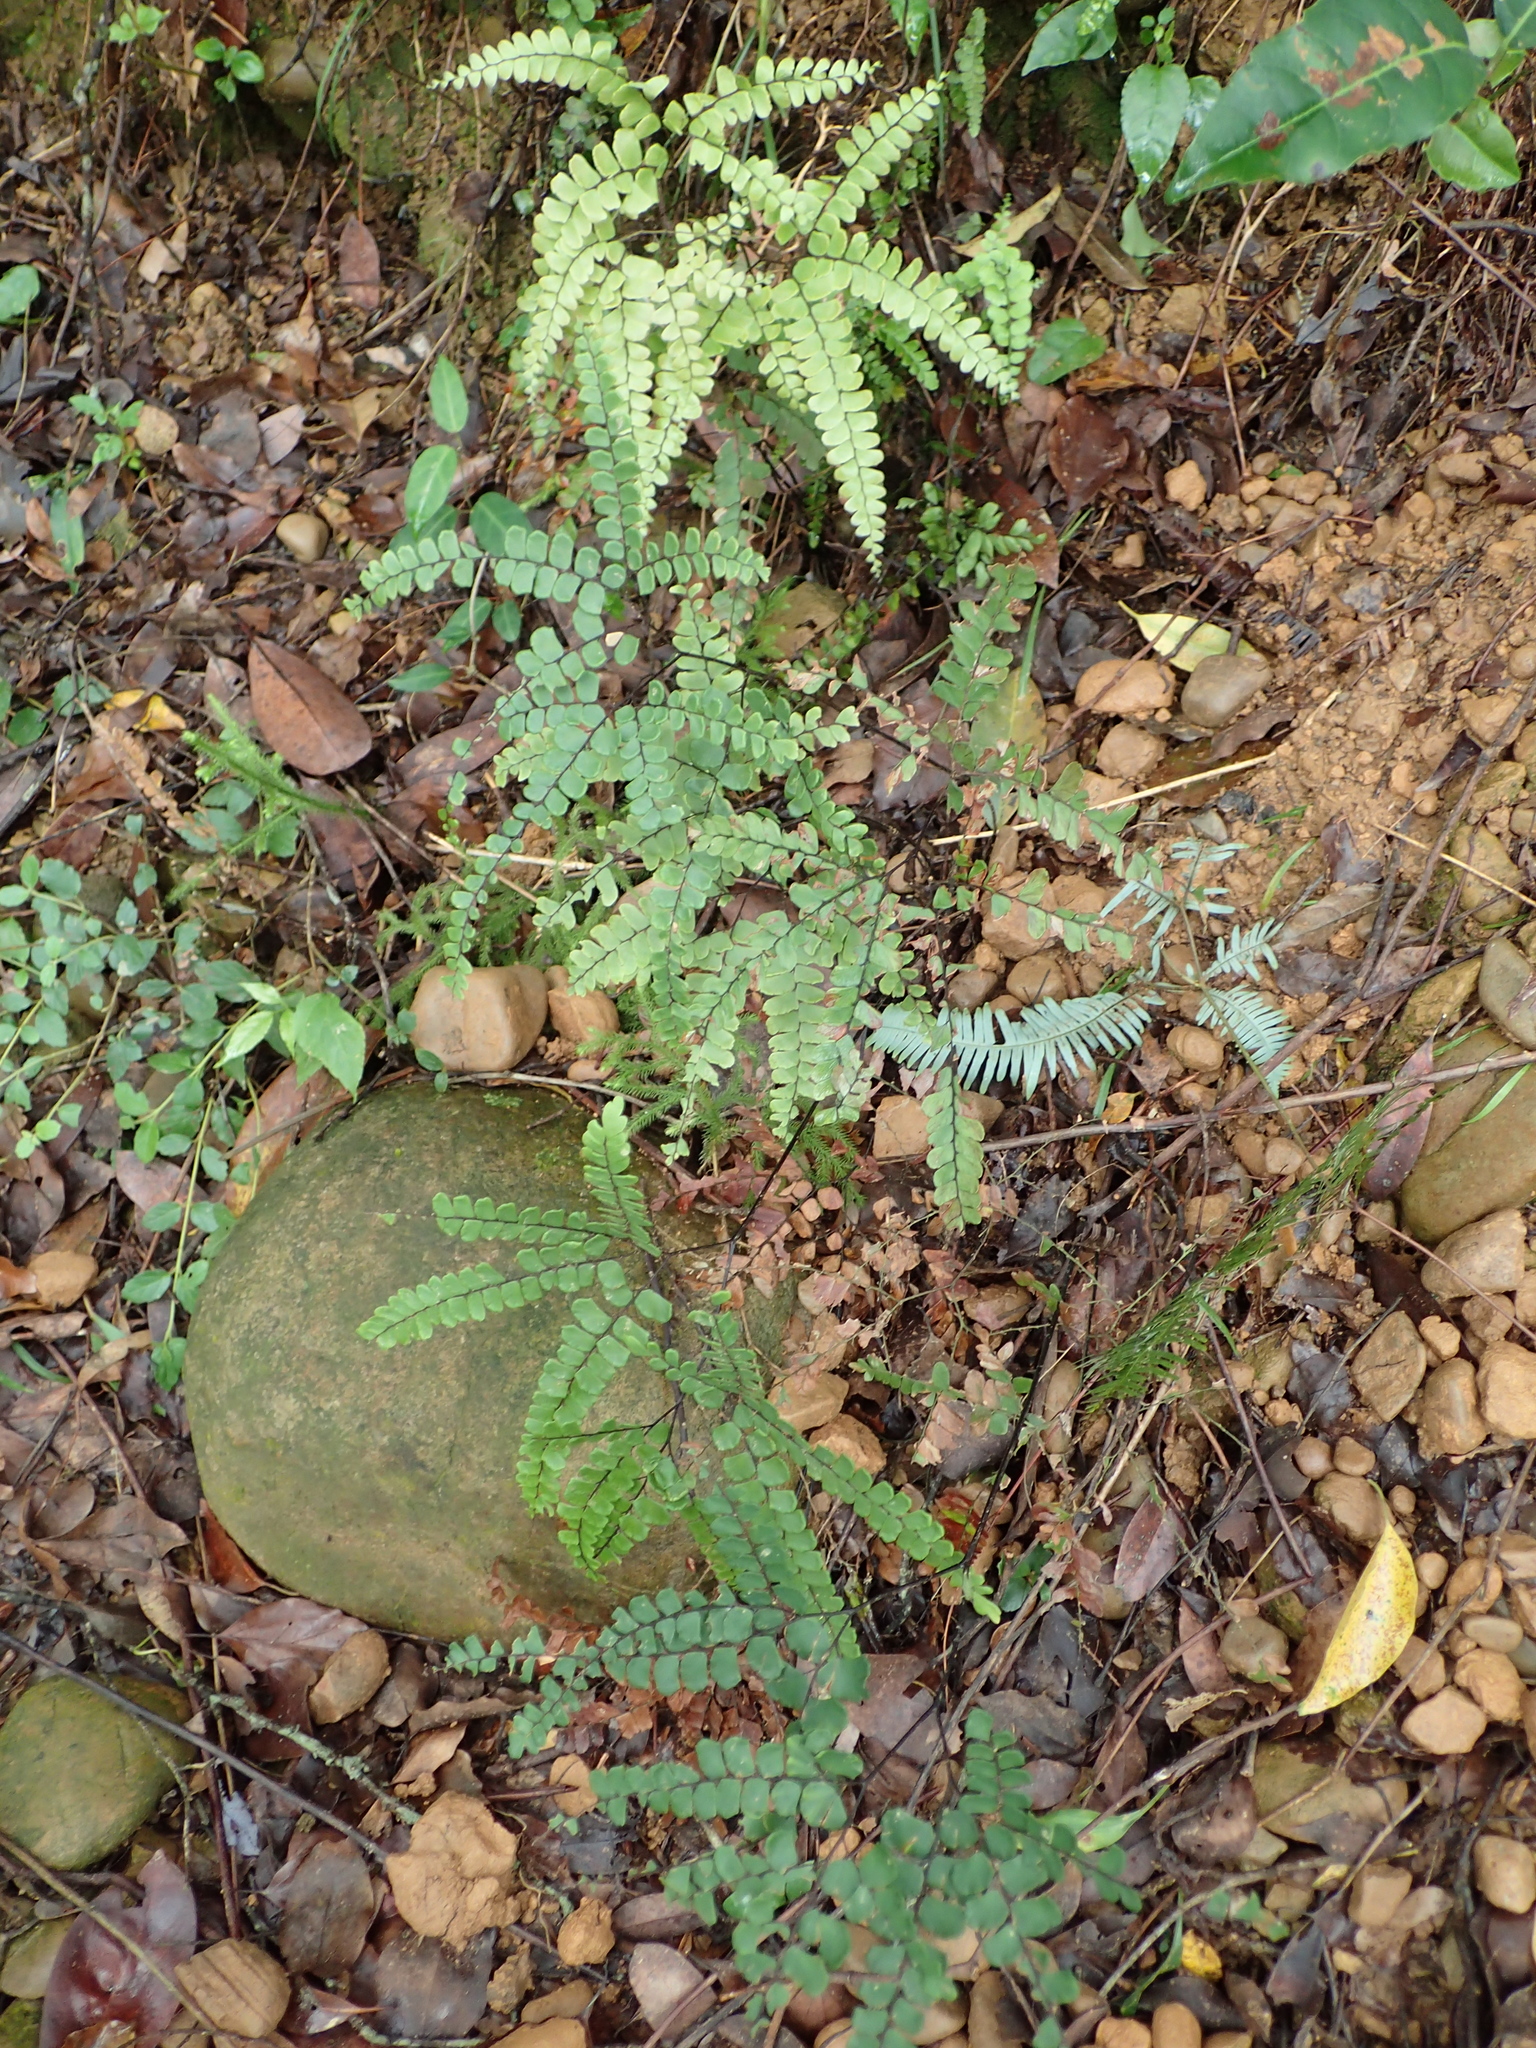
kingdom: Plantae
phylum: Tracheophyta
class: Polypodiopsida
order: Polypodiales
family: Pteridaceae
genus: Adiantum
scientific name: Adiantum flabellulatum
